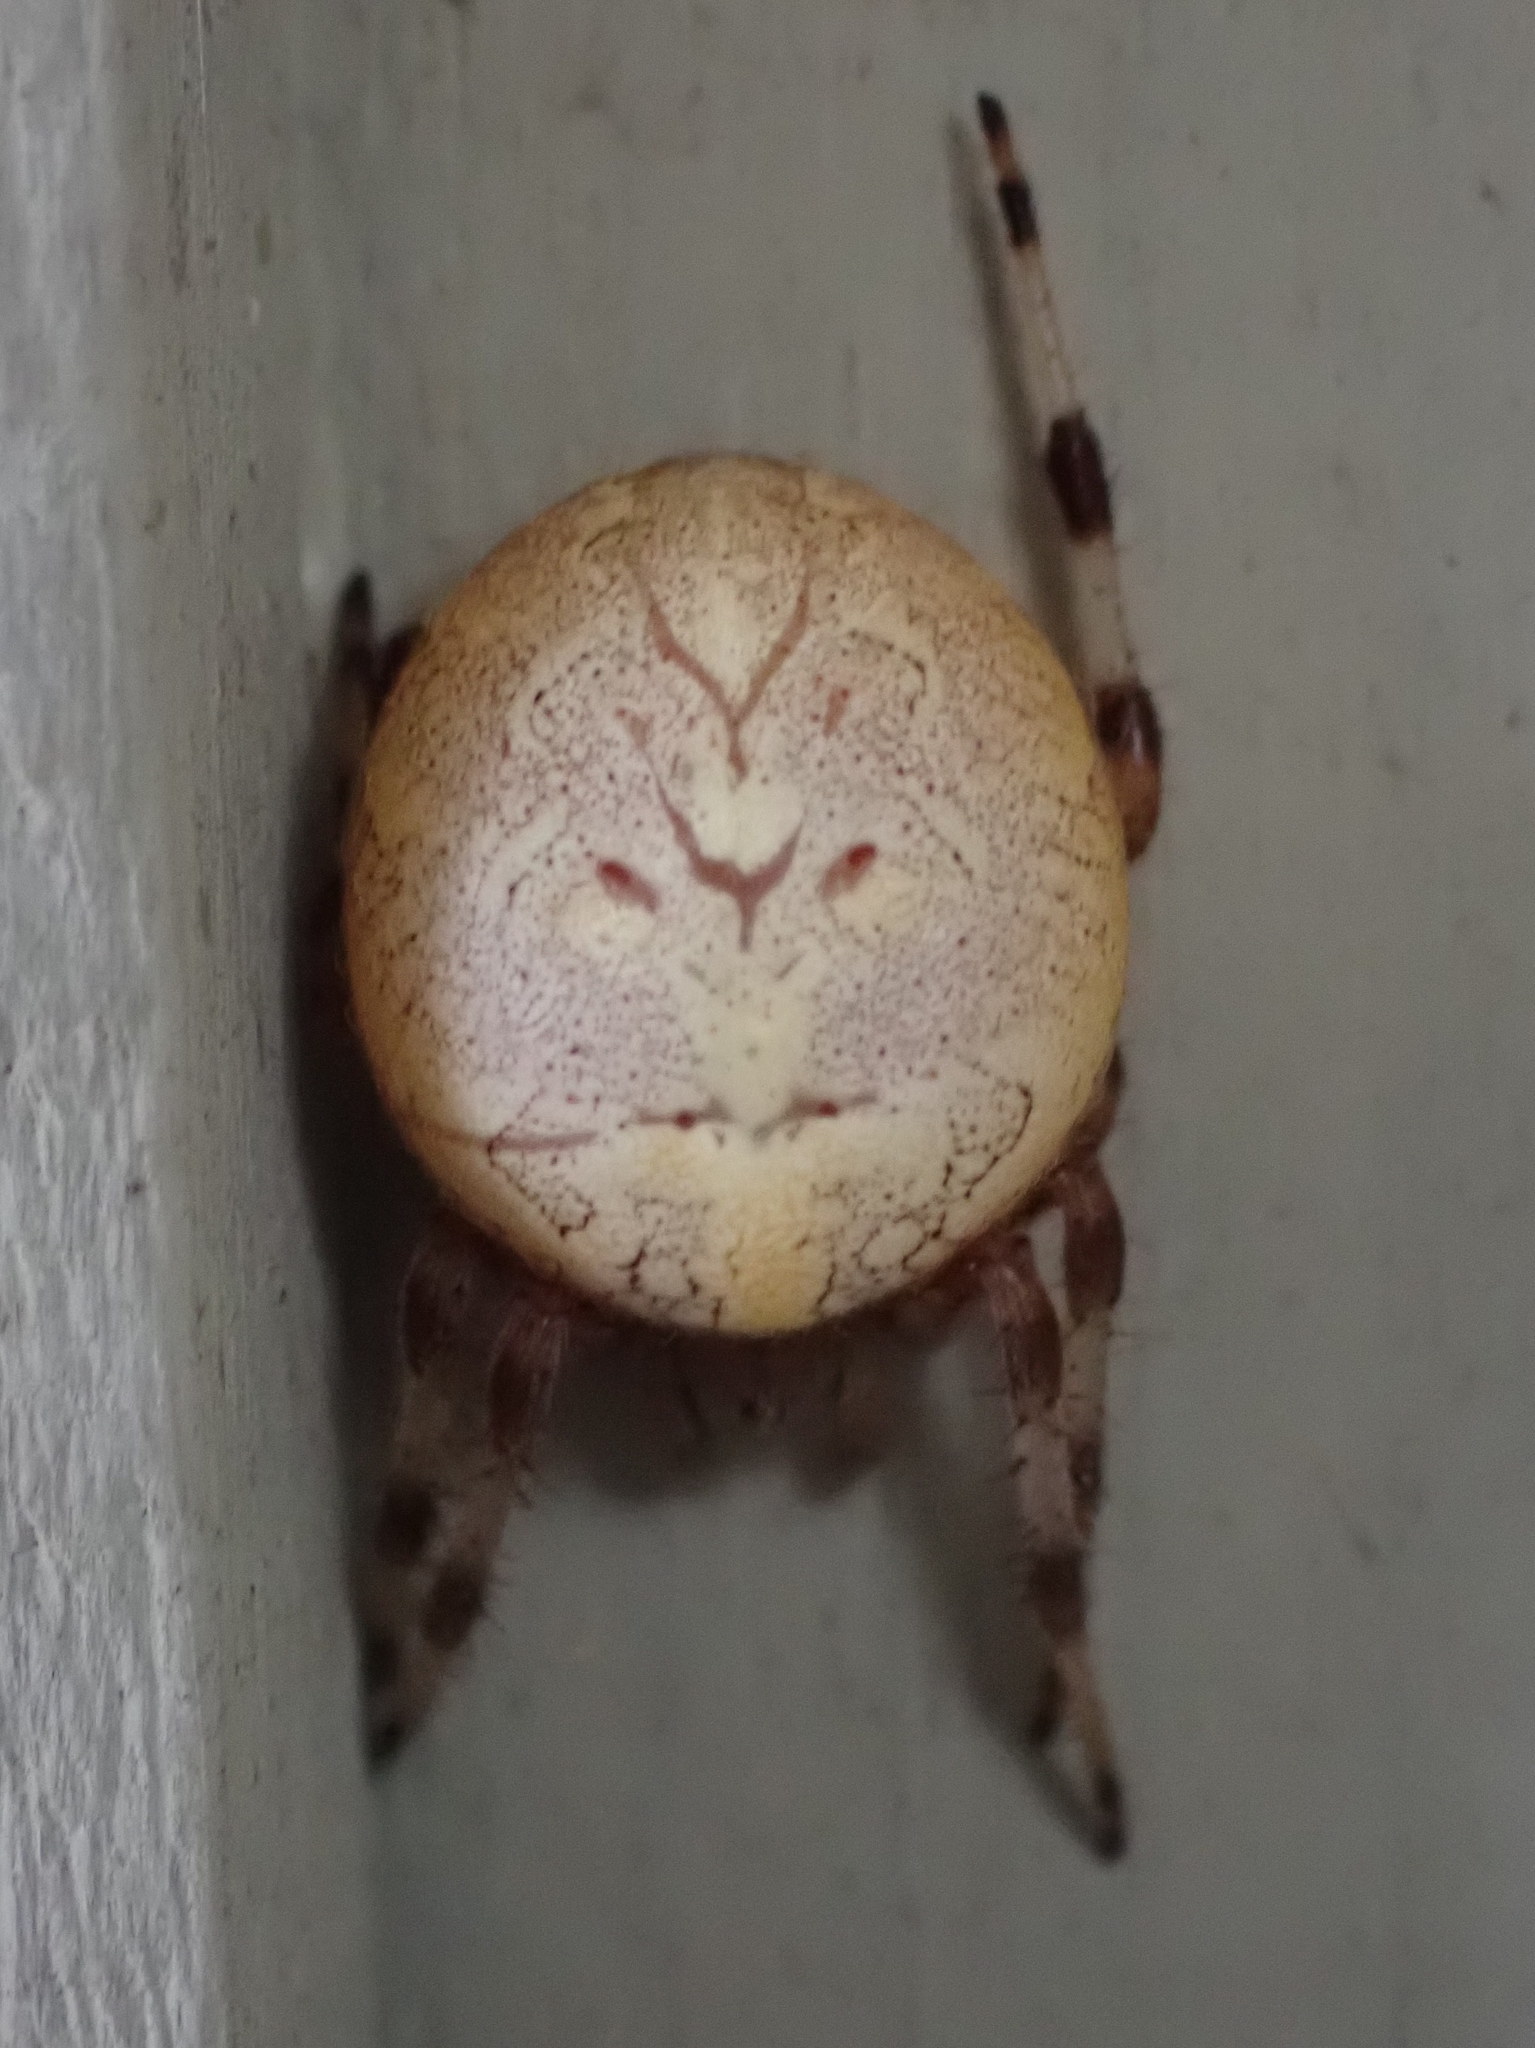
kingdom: Animalia
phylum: Arthropoda
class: Arachnida
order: Araneae
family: Araneidae
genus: Araneus
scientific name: Araneus marmoreus
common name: Marbled orbweaver
